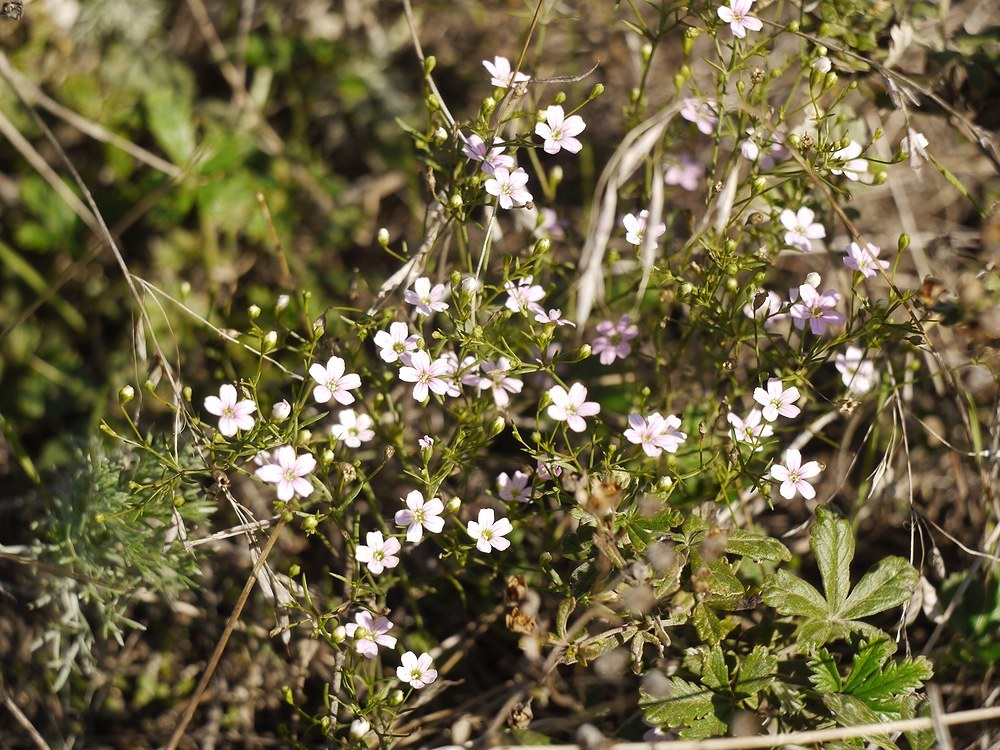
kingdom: Plantae
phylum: Tracheophyta
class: Magnoliopsida
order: Caryophyllales
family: Caryophyllaceae
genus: Psammophiliella
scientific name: Psammophiliella muralis
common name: Cushion baby's-breath
